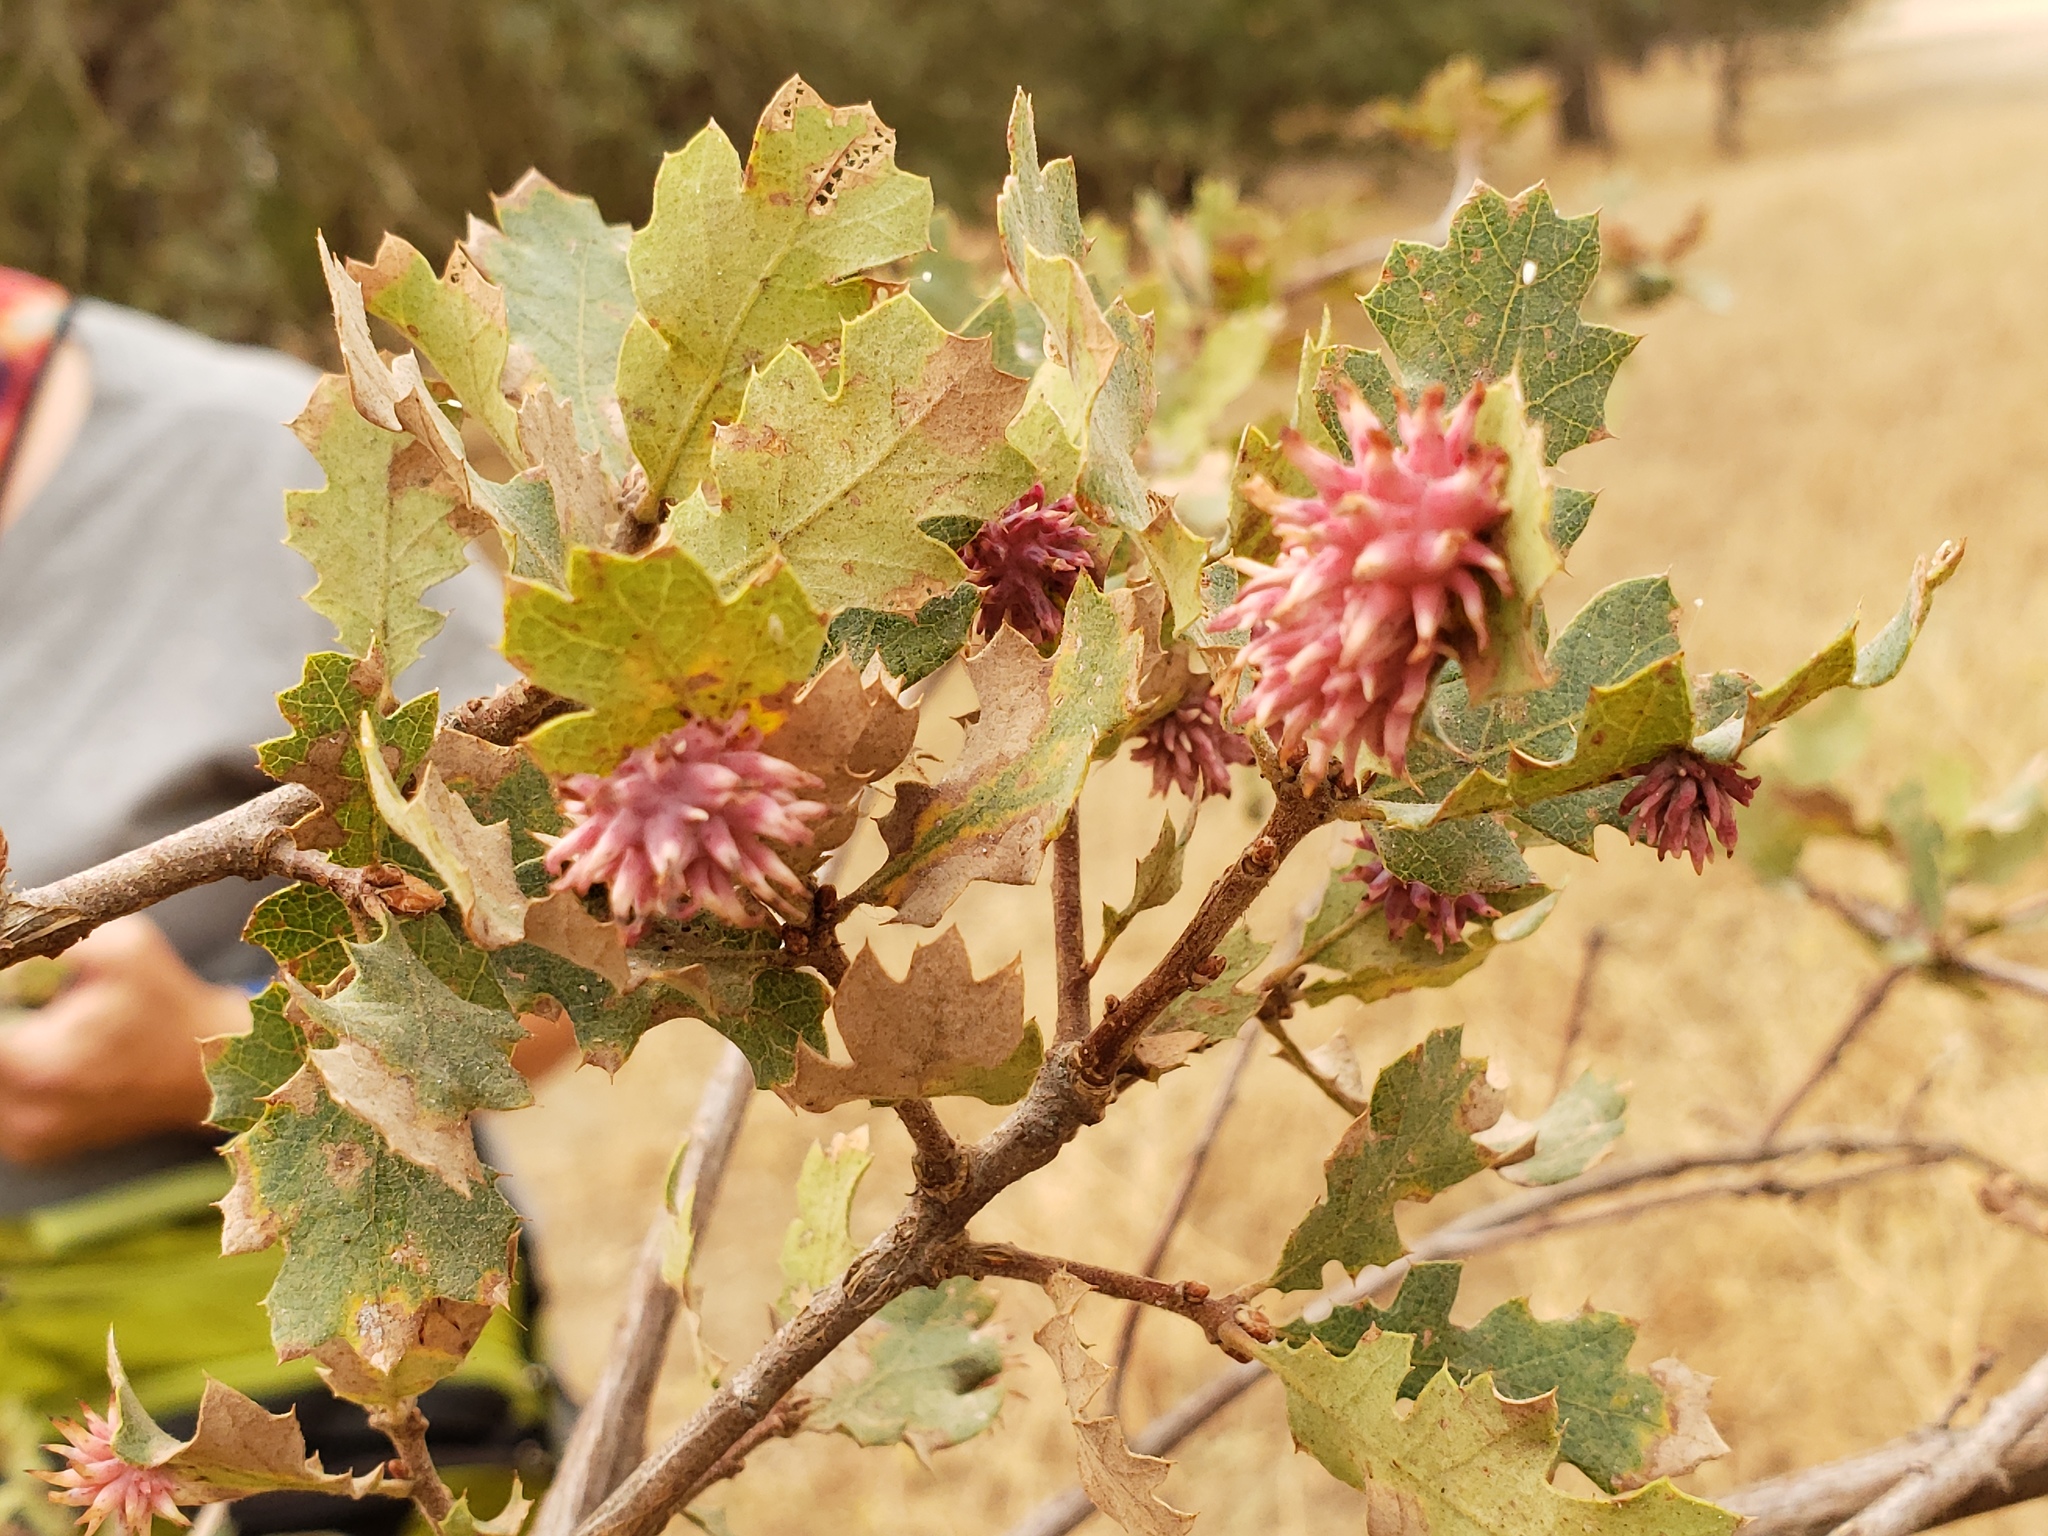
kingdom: Animalia
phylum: Arthropoda
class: Insecta
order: Hymenoptera
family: Cynipidae
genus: Cynips
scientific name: Cynips
